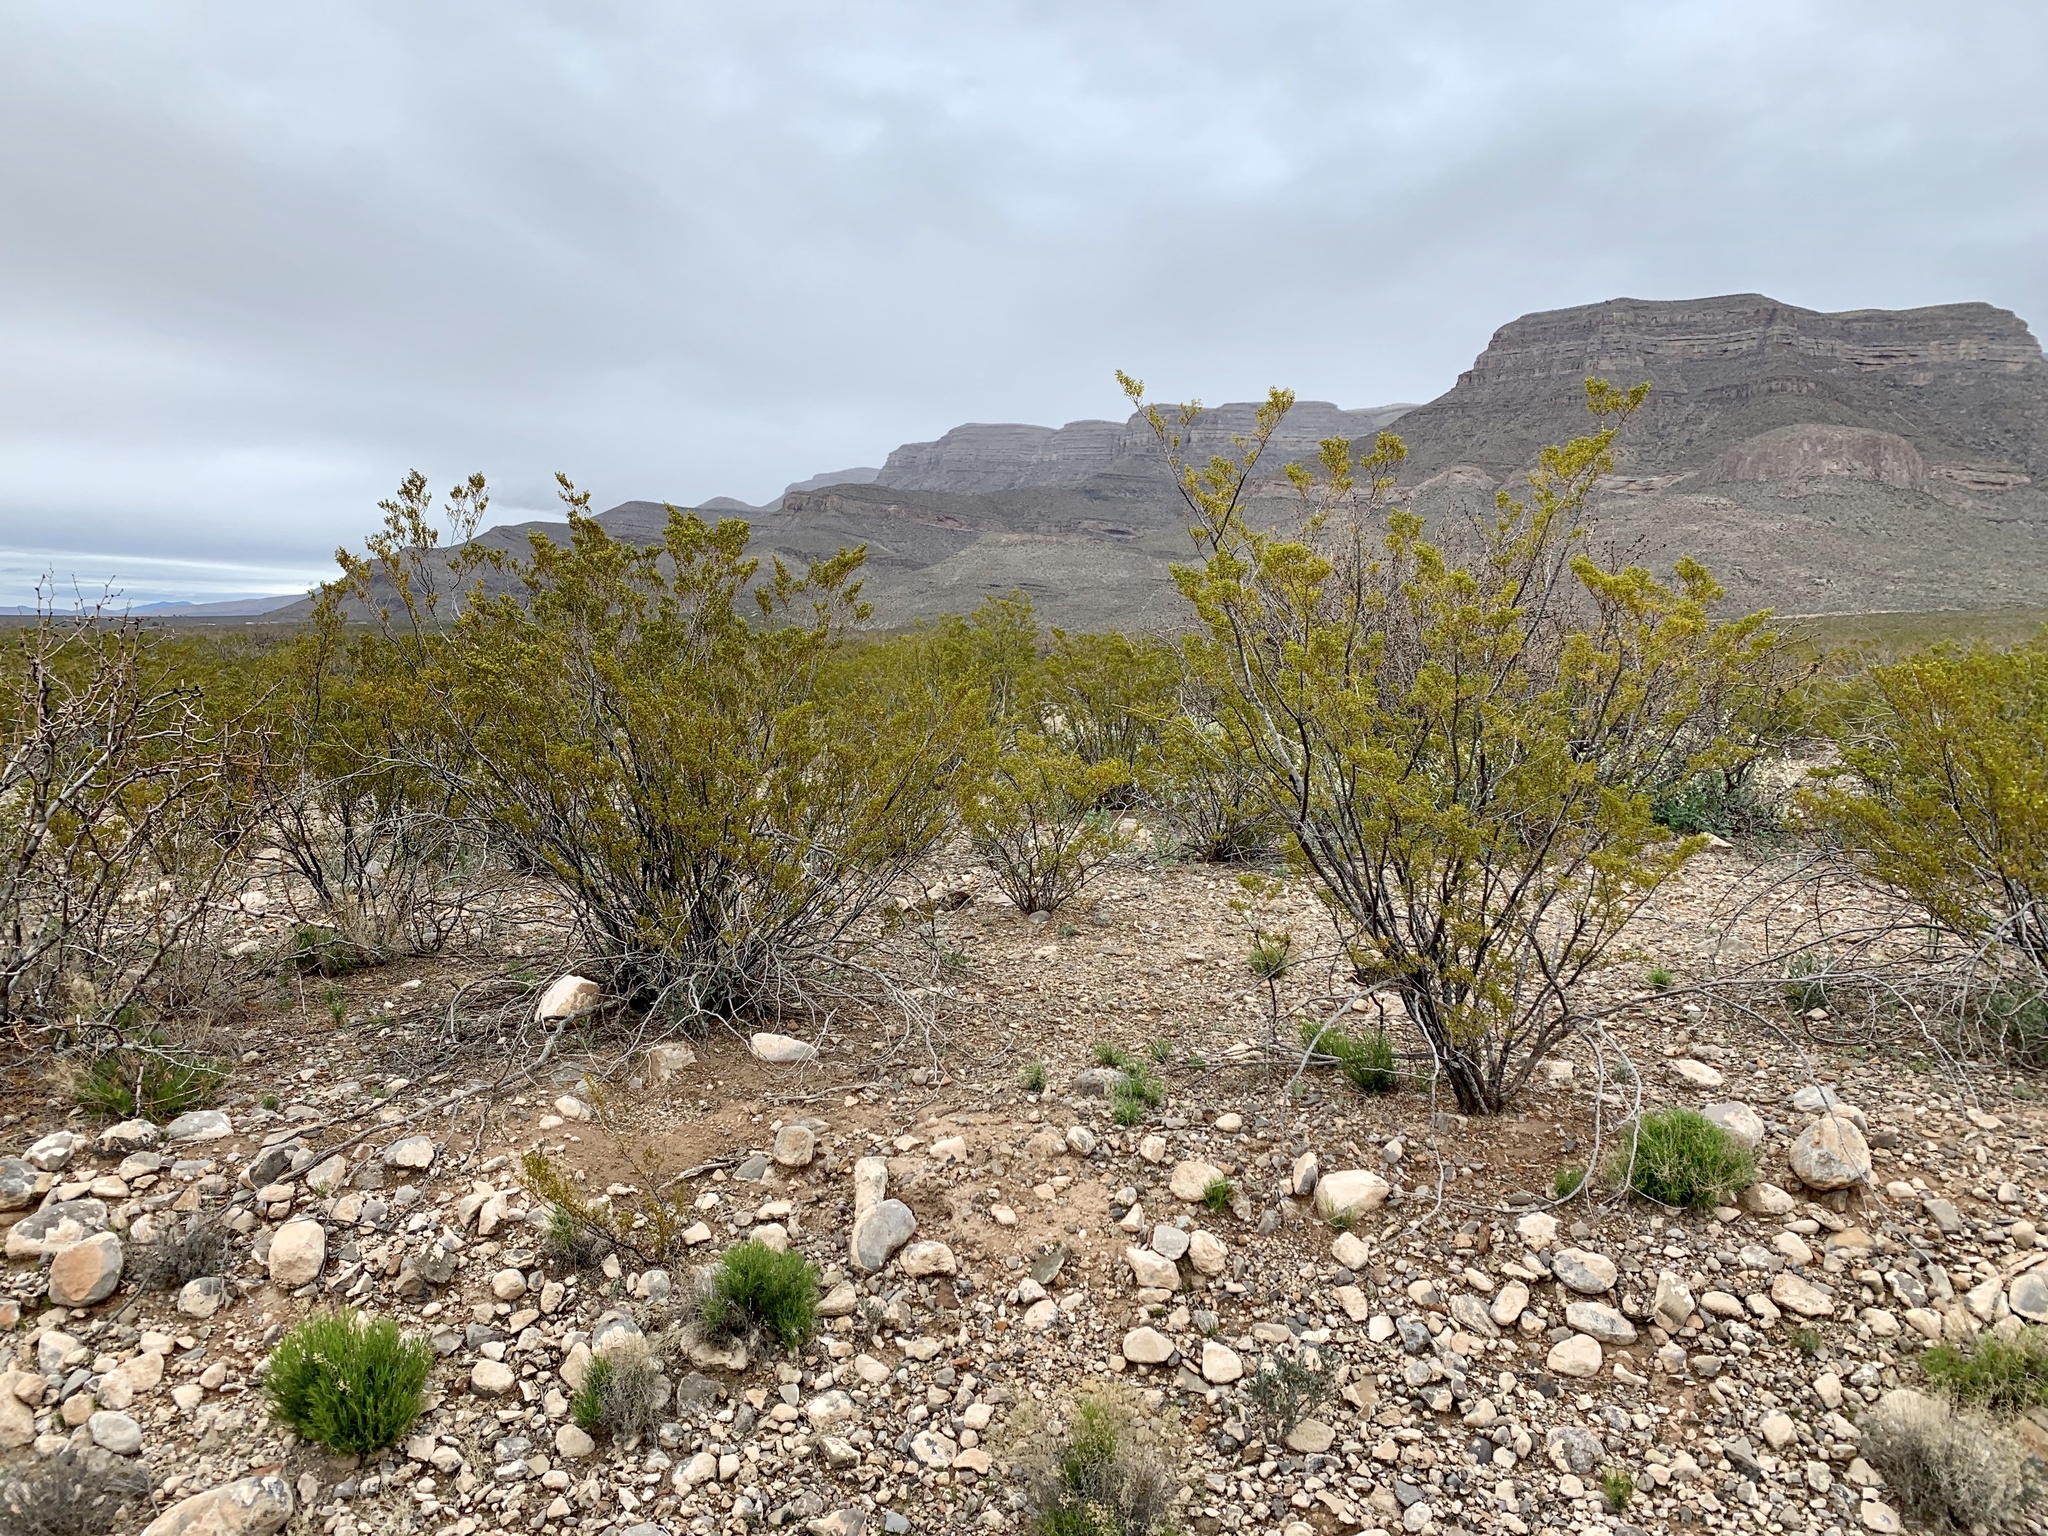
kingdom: Plantae
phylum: Tracheophyta
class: Magnoliopsida
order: Zygophyllales
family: Zygophyllaceae
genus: Larrea
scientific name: Larrea tridentata
